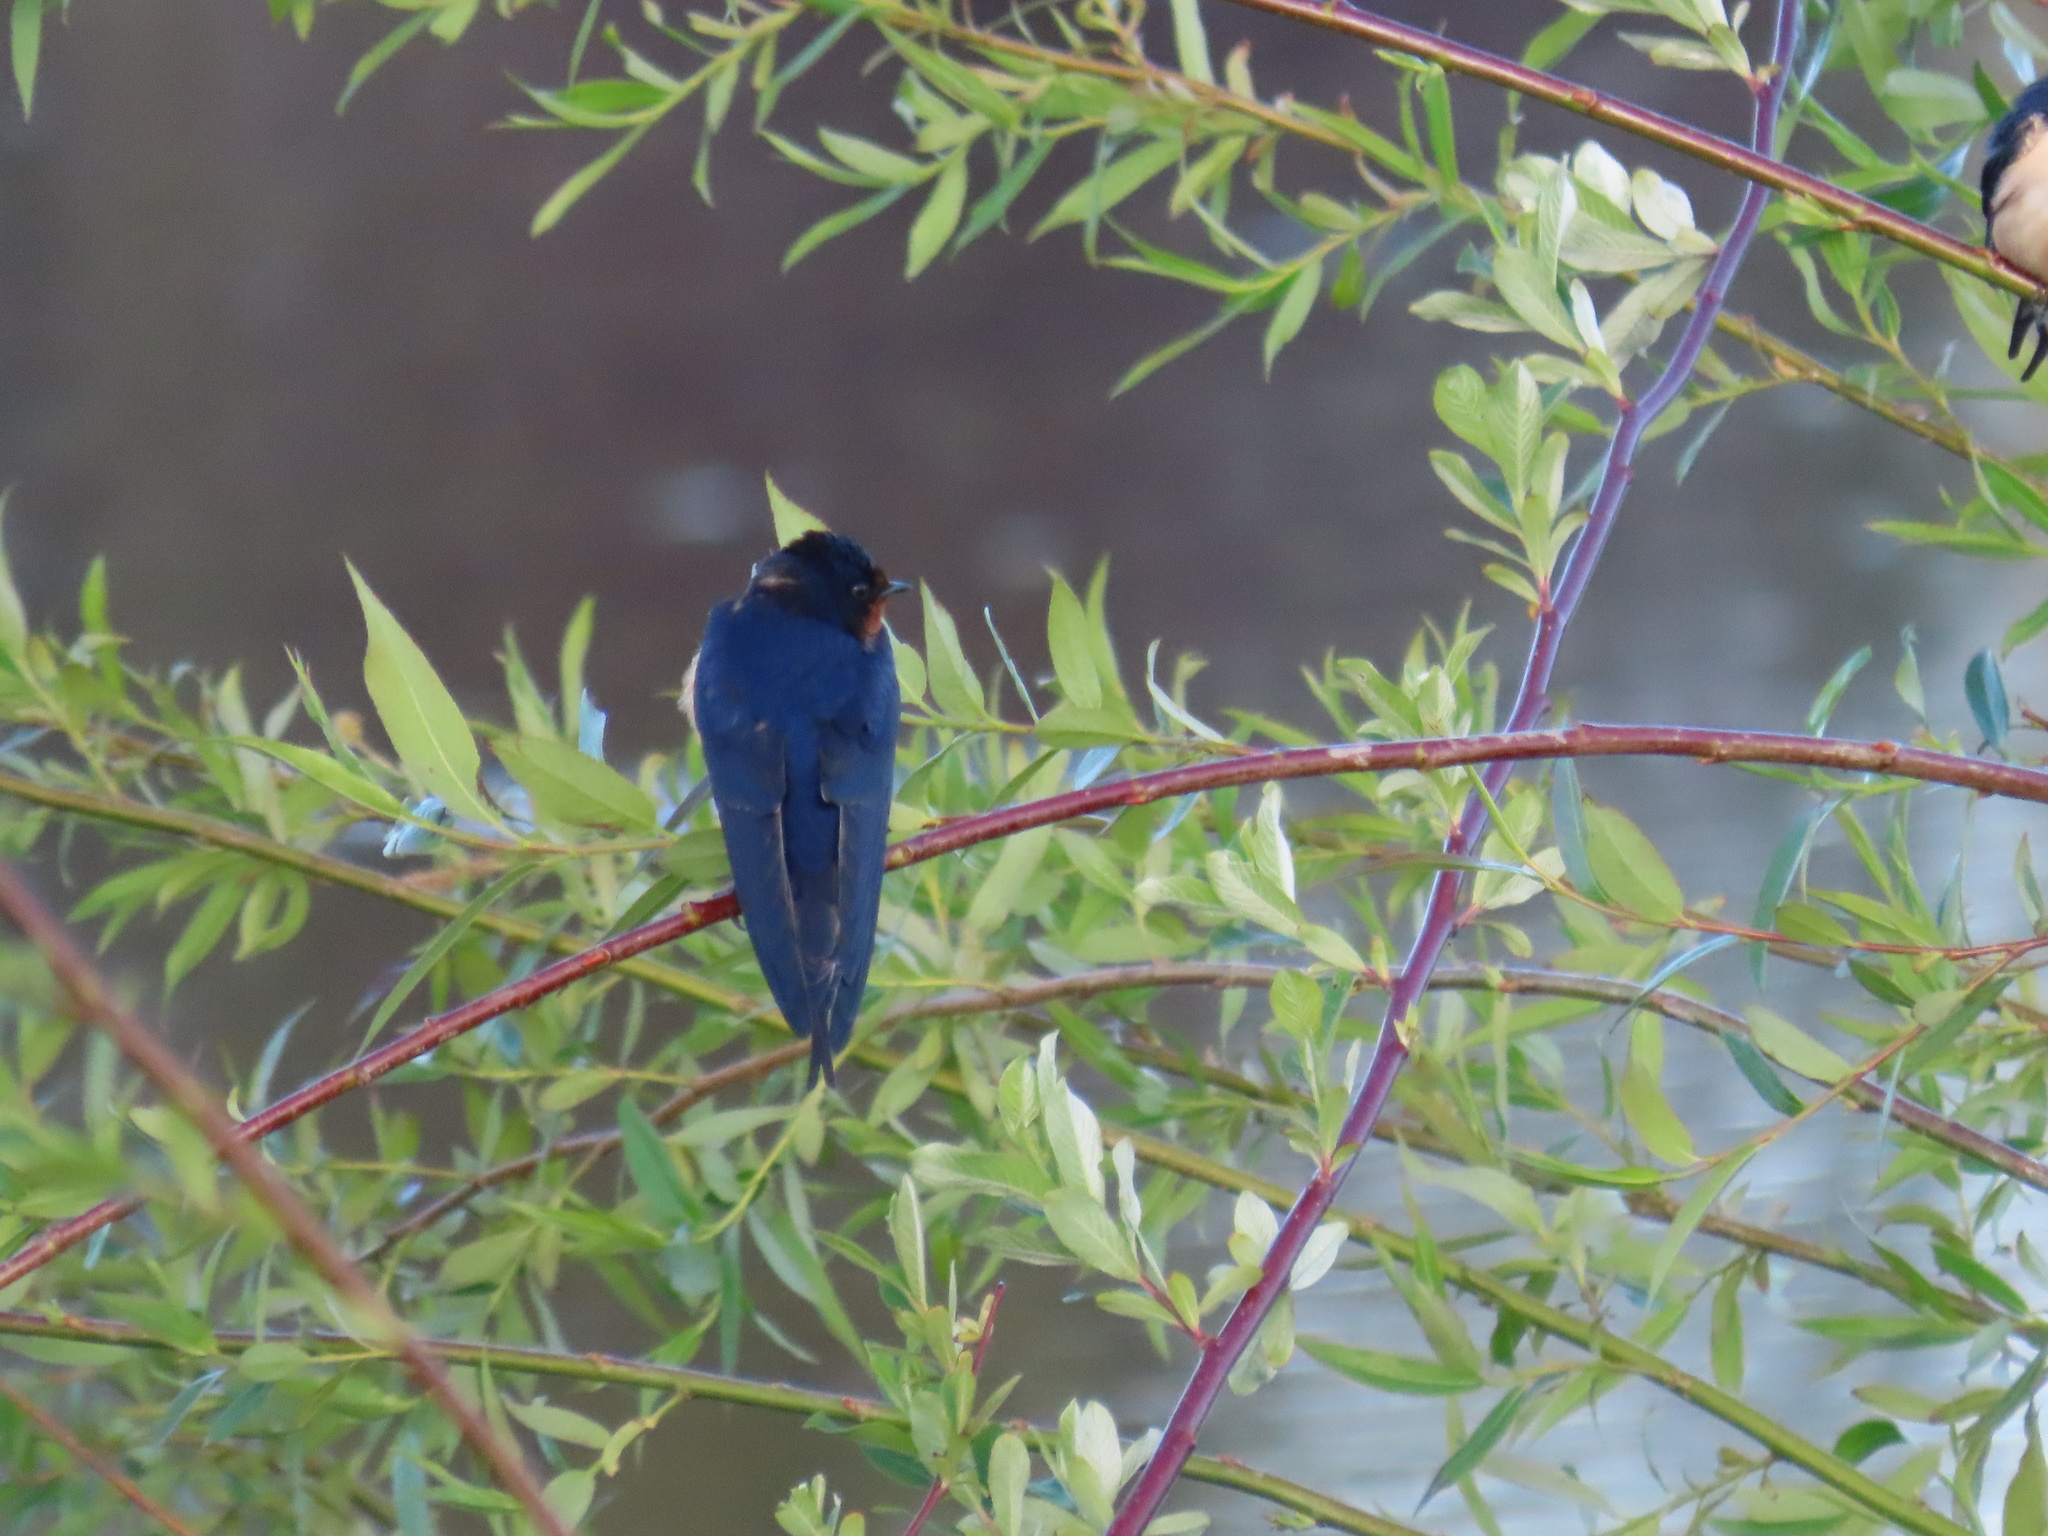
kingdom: Animalia
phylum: Chordata
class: Aves
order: Passeriformes
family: Hirundinidae
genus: Hirundo
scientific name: Hirundo rustica
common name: Barn swallow
